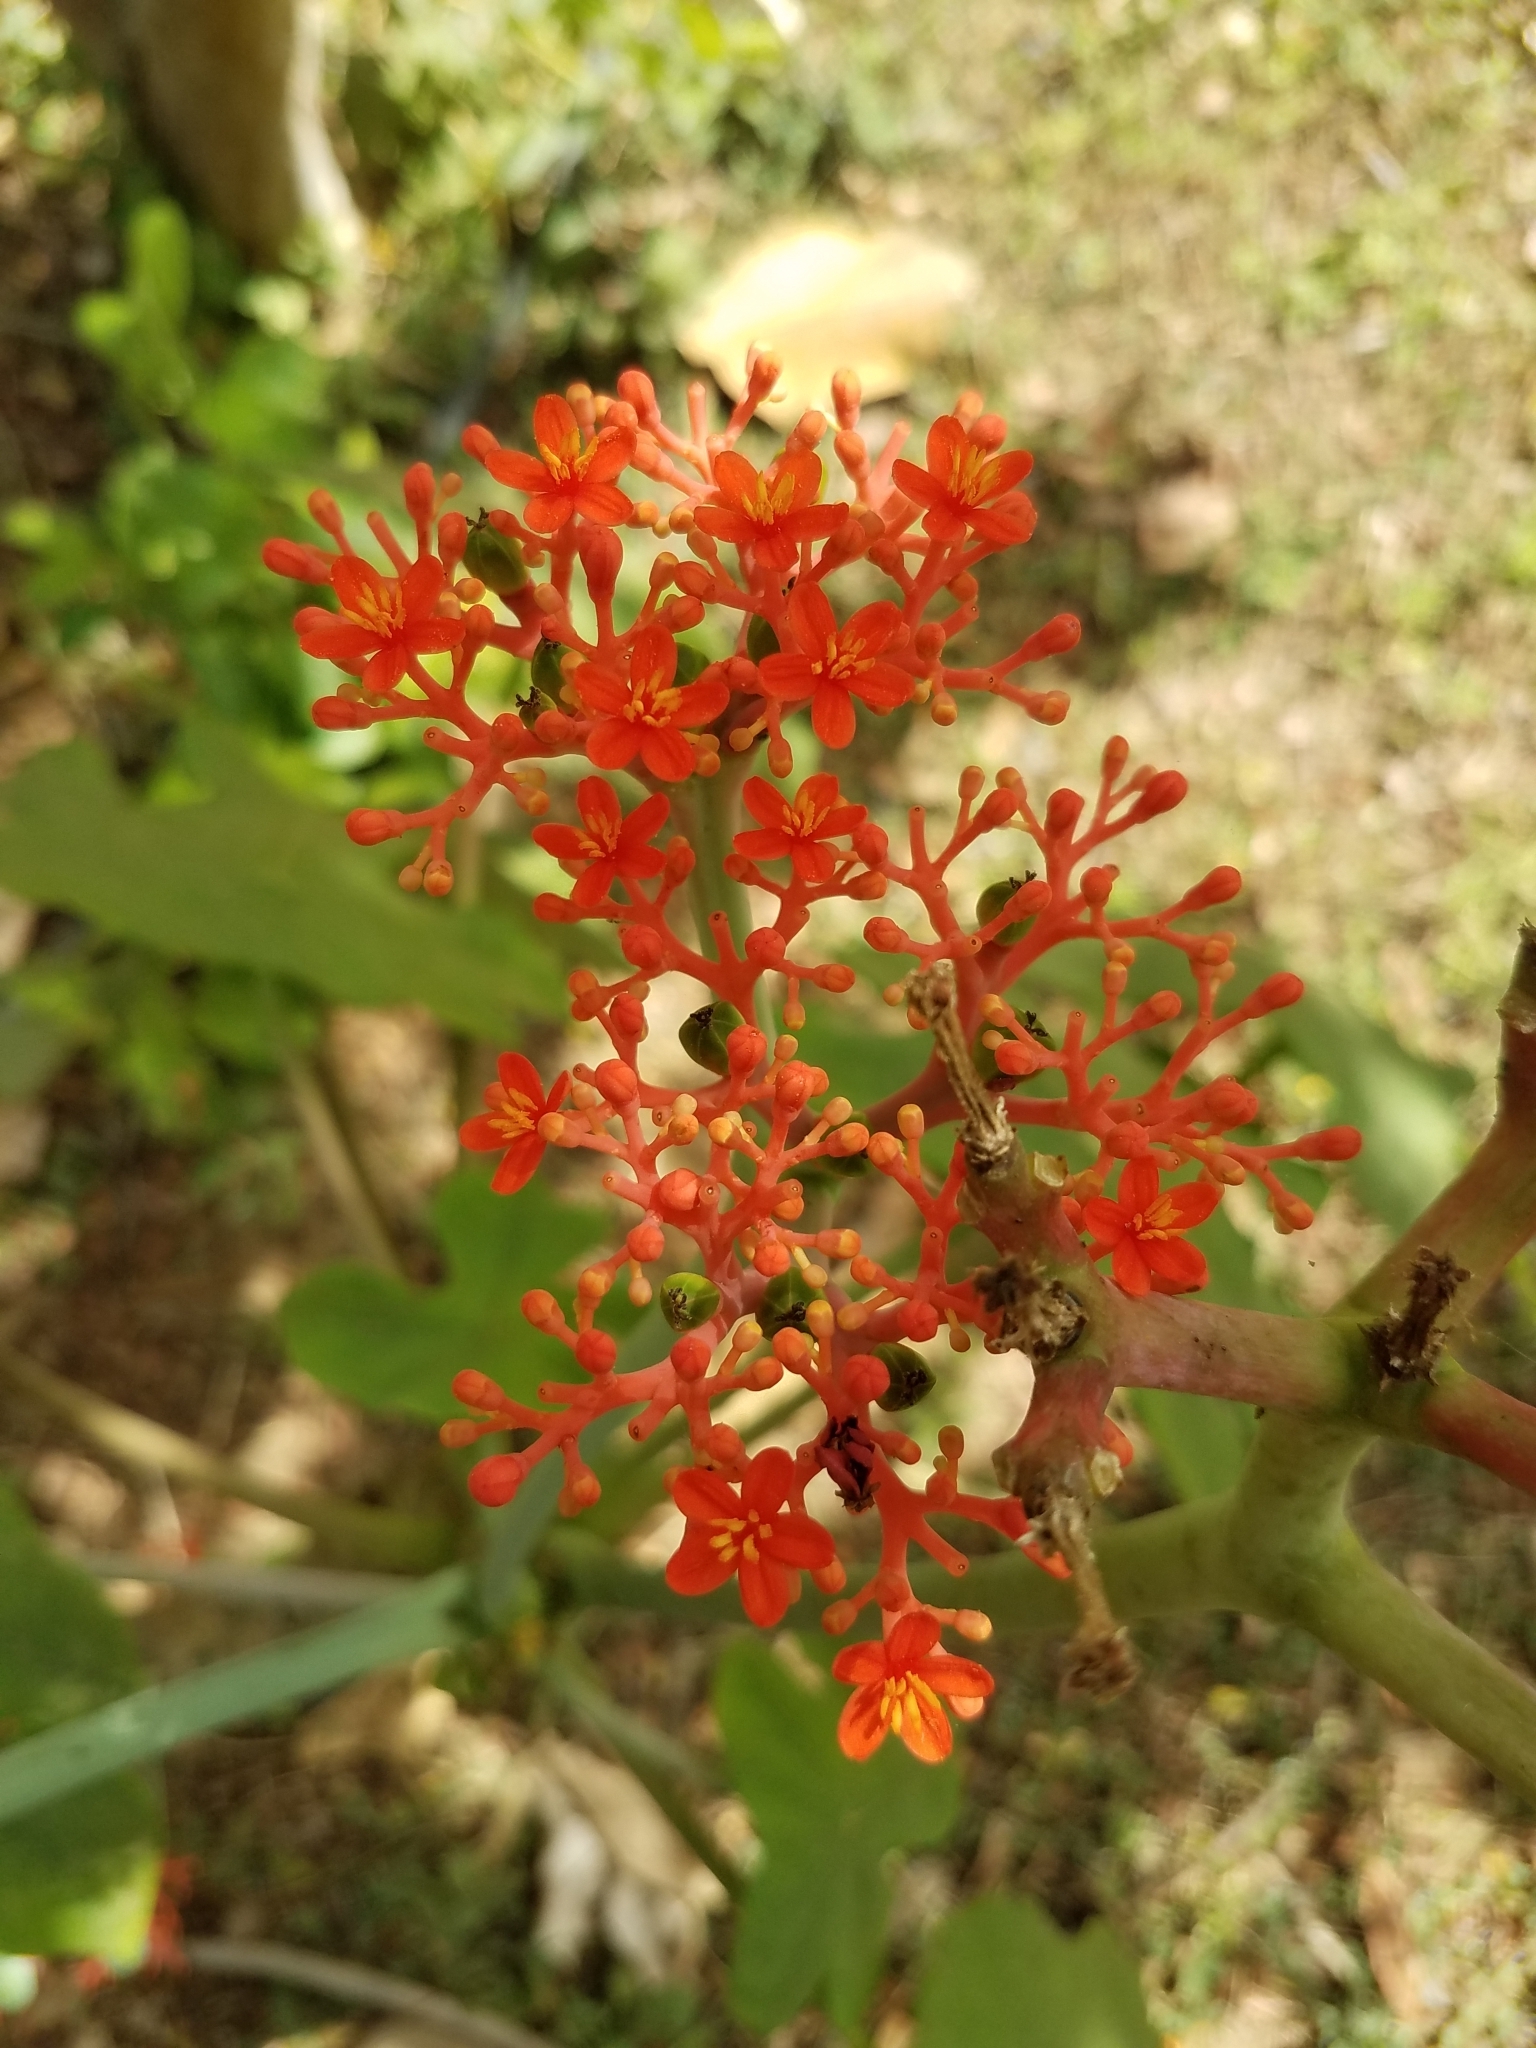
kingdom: Plantae
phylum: Tracheophyta
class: Magnoliopsida
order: Malpighiales
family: Euphorbiaceae
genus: Jatropha
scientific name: Jatropha podagrica
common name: Gout stalk
